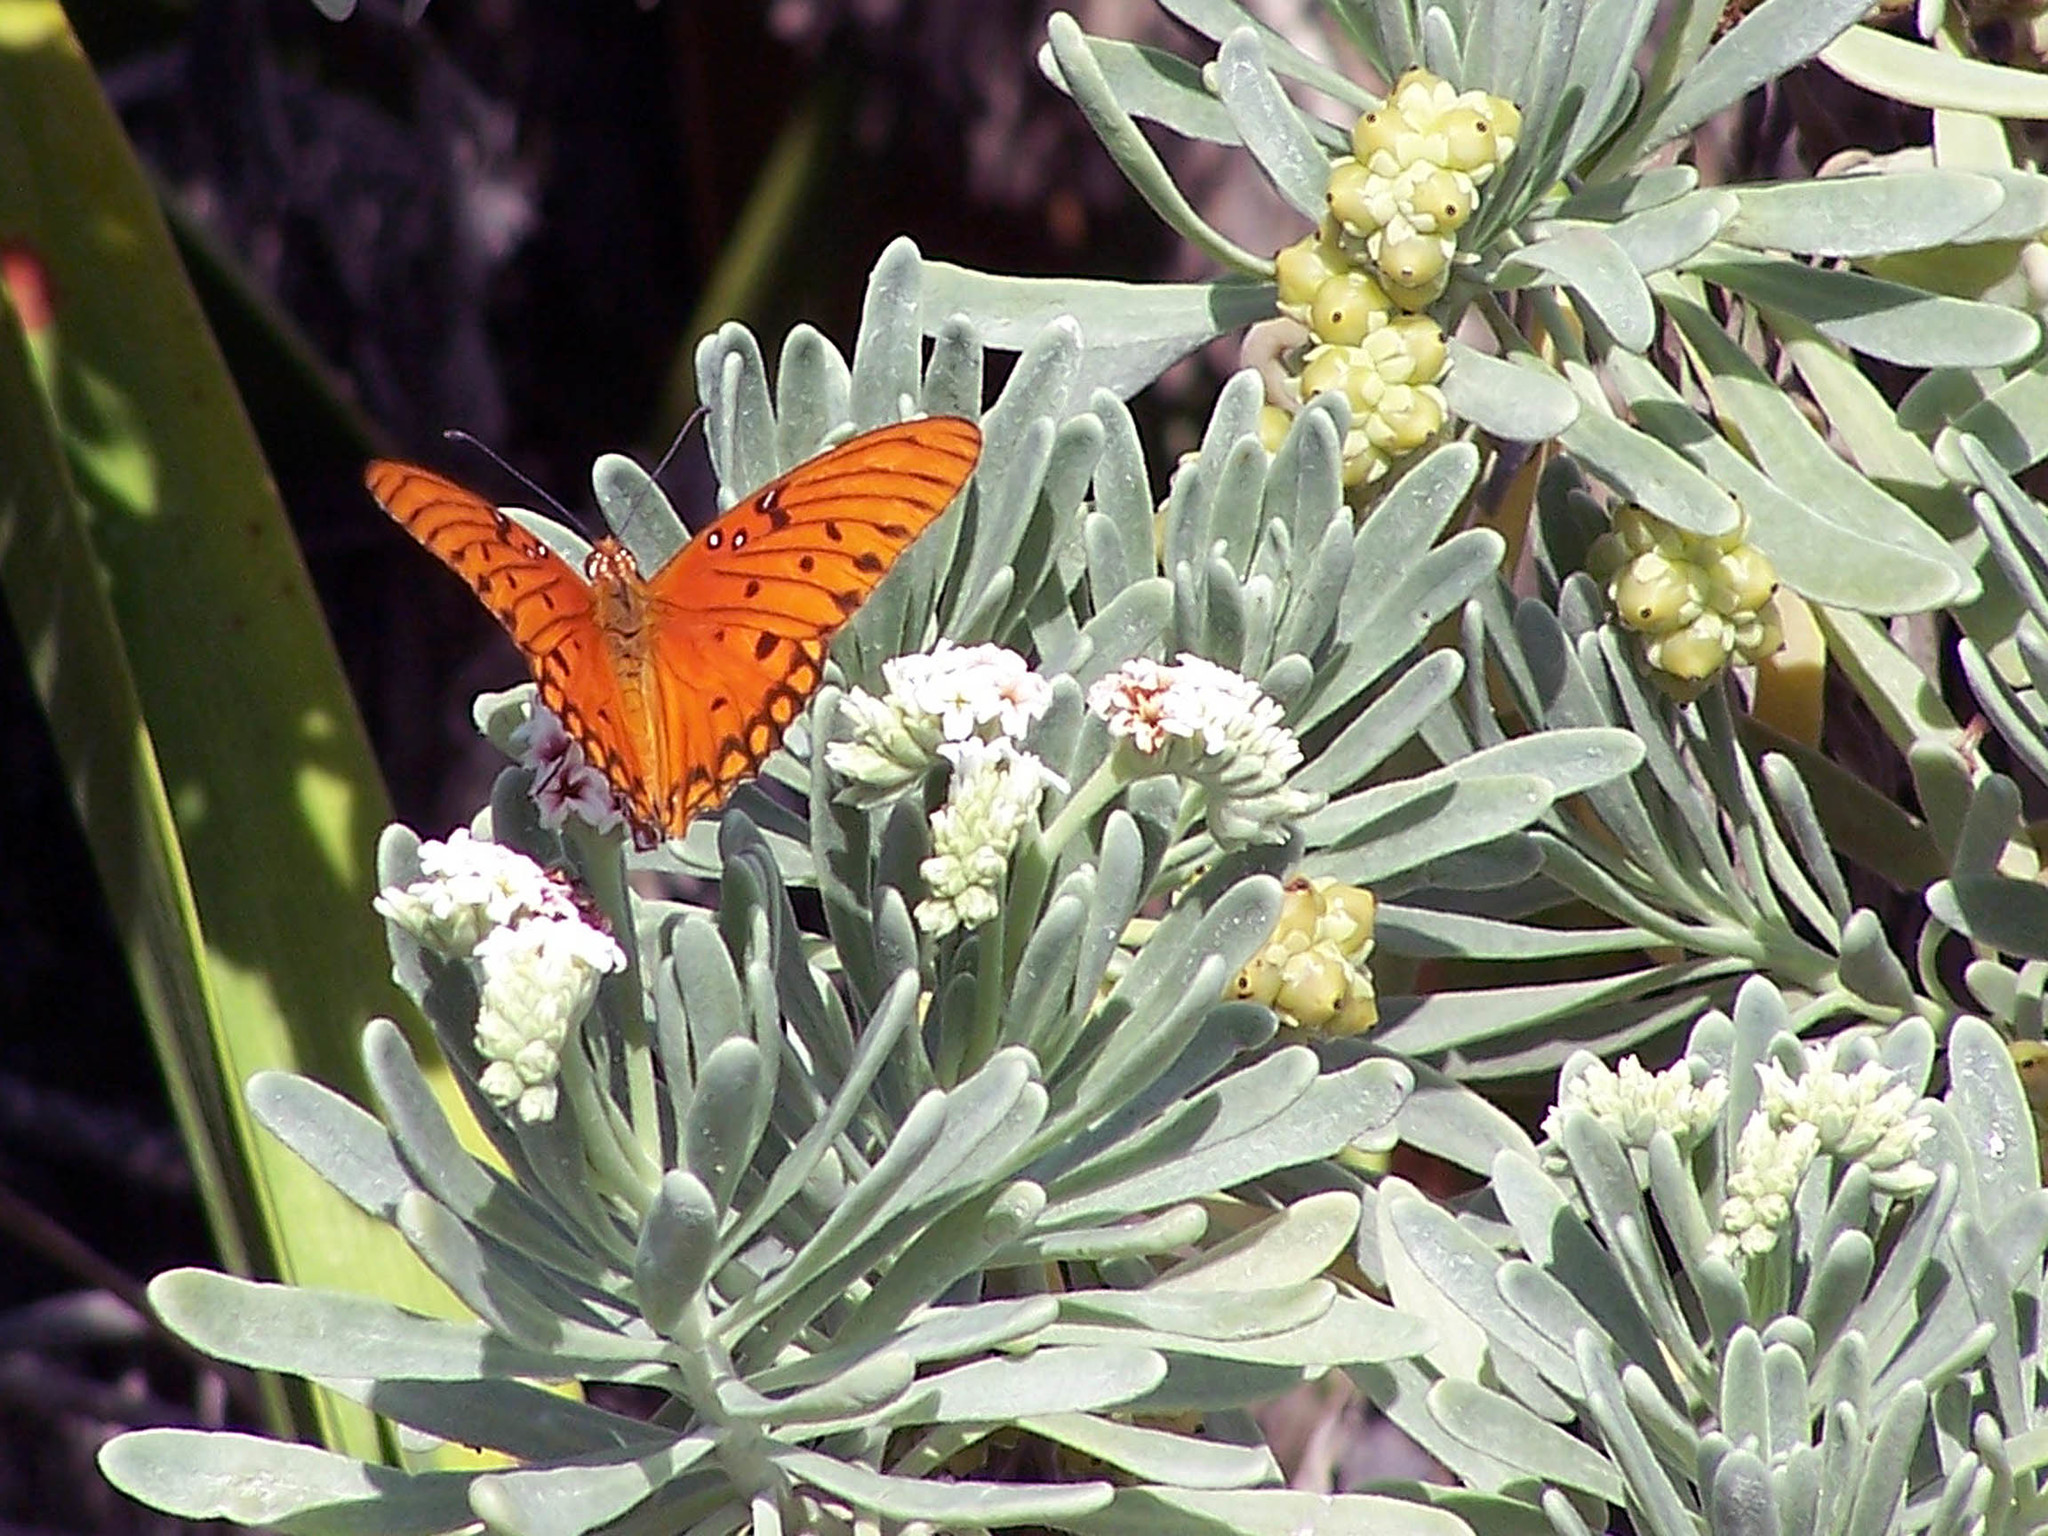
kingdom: Animalia
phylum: Arthropoda
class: Insecta
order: Lepidoptera
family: Nymphalidae
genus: Dione
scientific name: Dione vanillae
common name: Gulf fritillary
